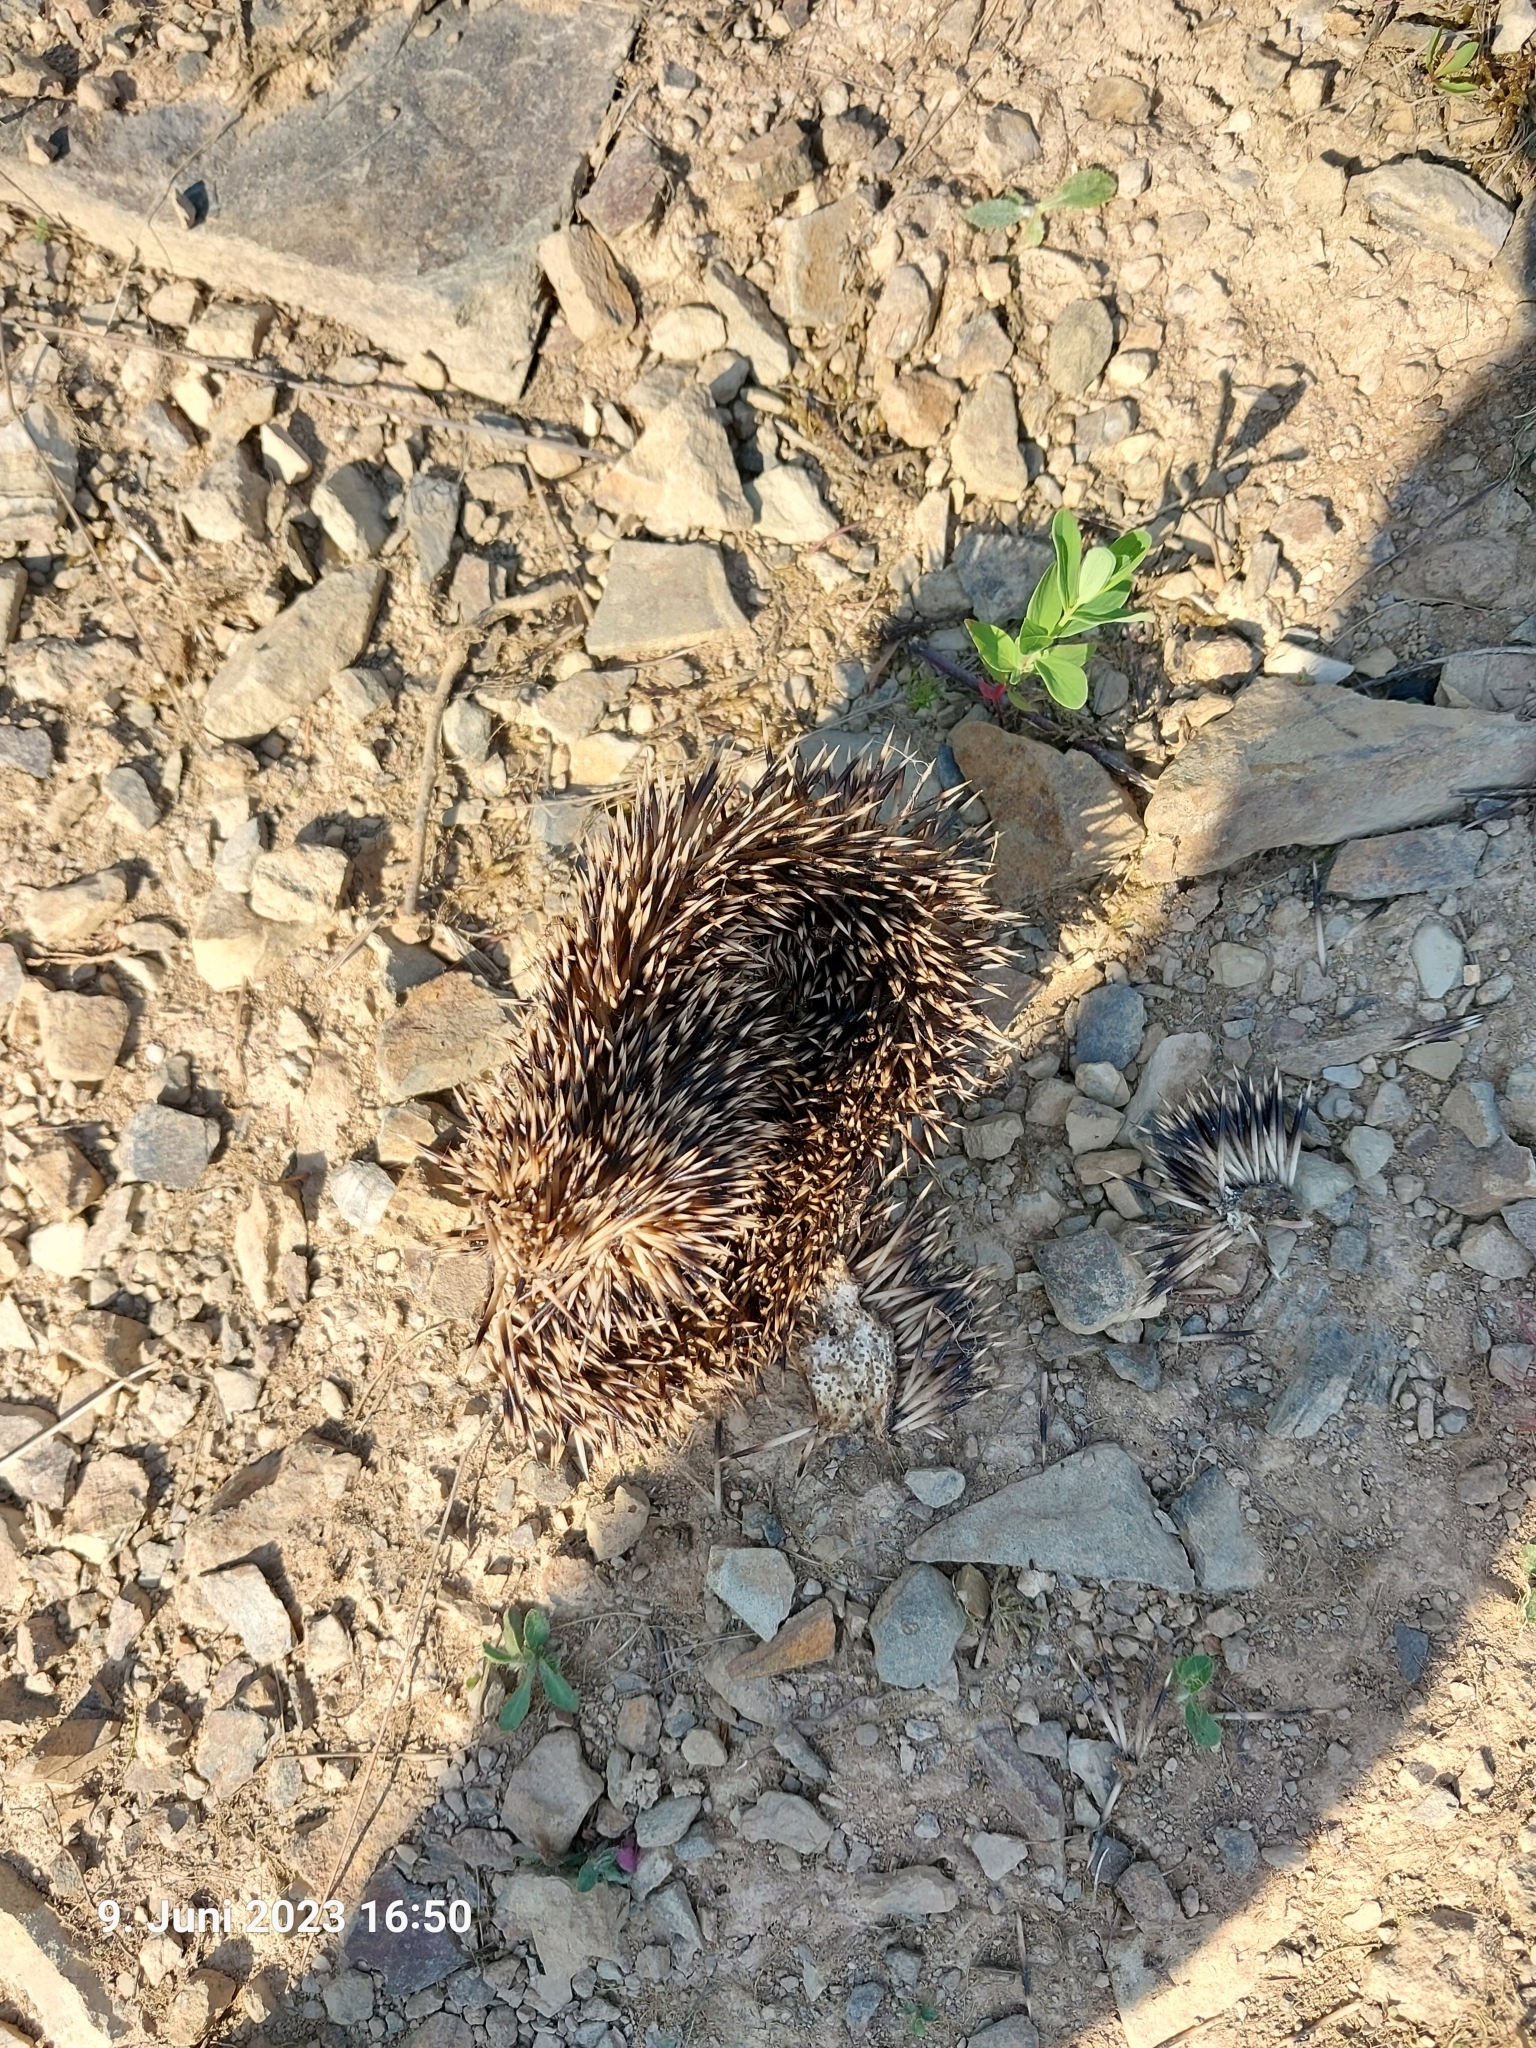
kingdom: Animalia
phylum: Chordata
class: Mammalia
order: Erinaceomorpha
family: Erinaceidae
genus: Erinaceus
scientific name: Erinaceus europaeus
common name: West european hedgehog
